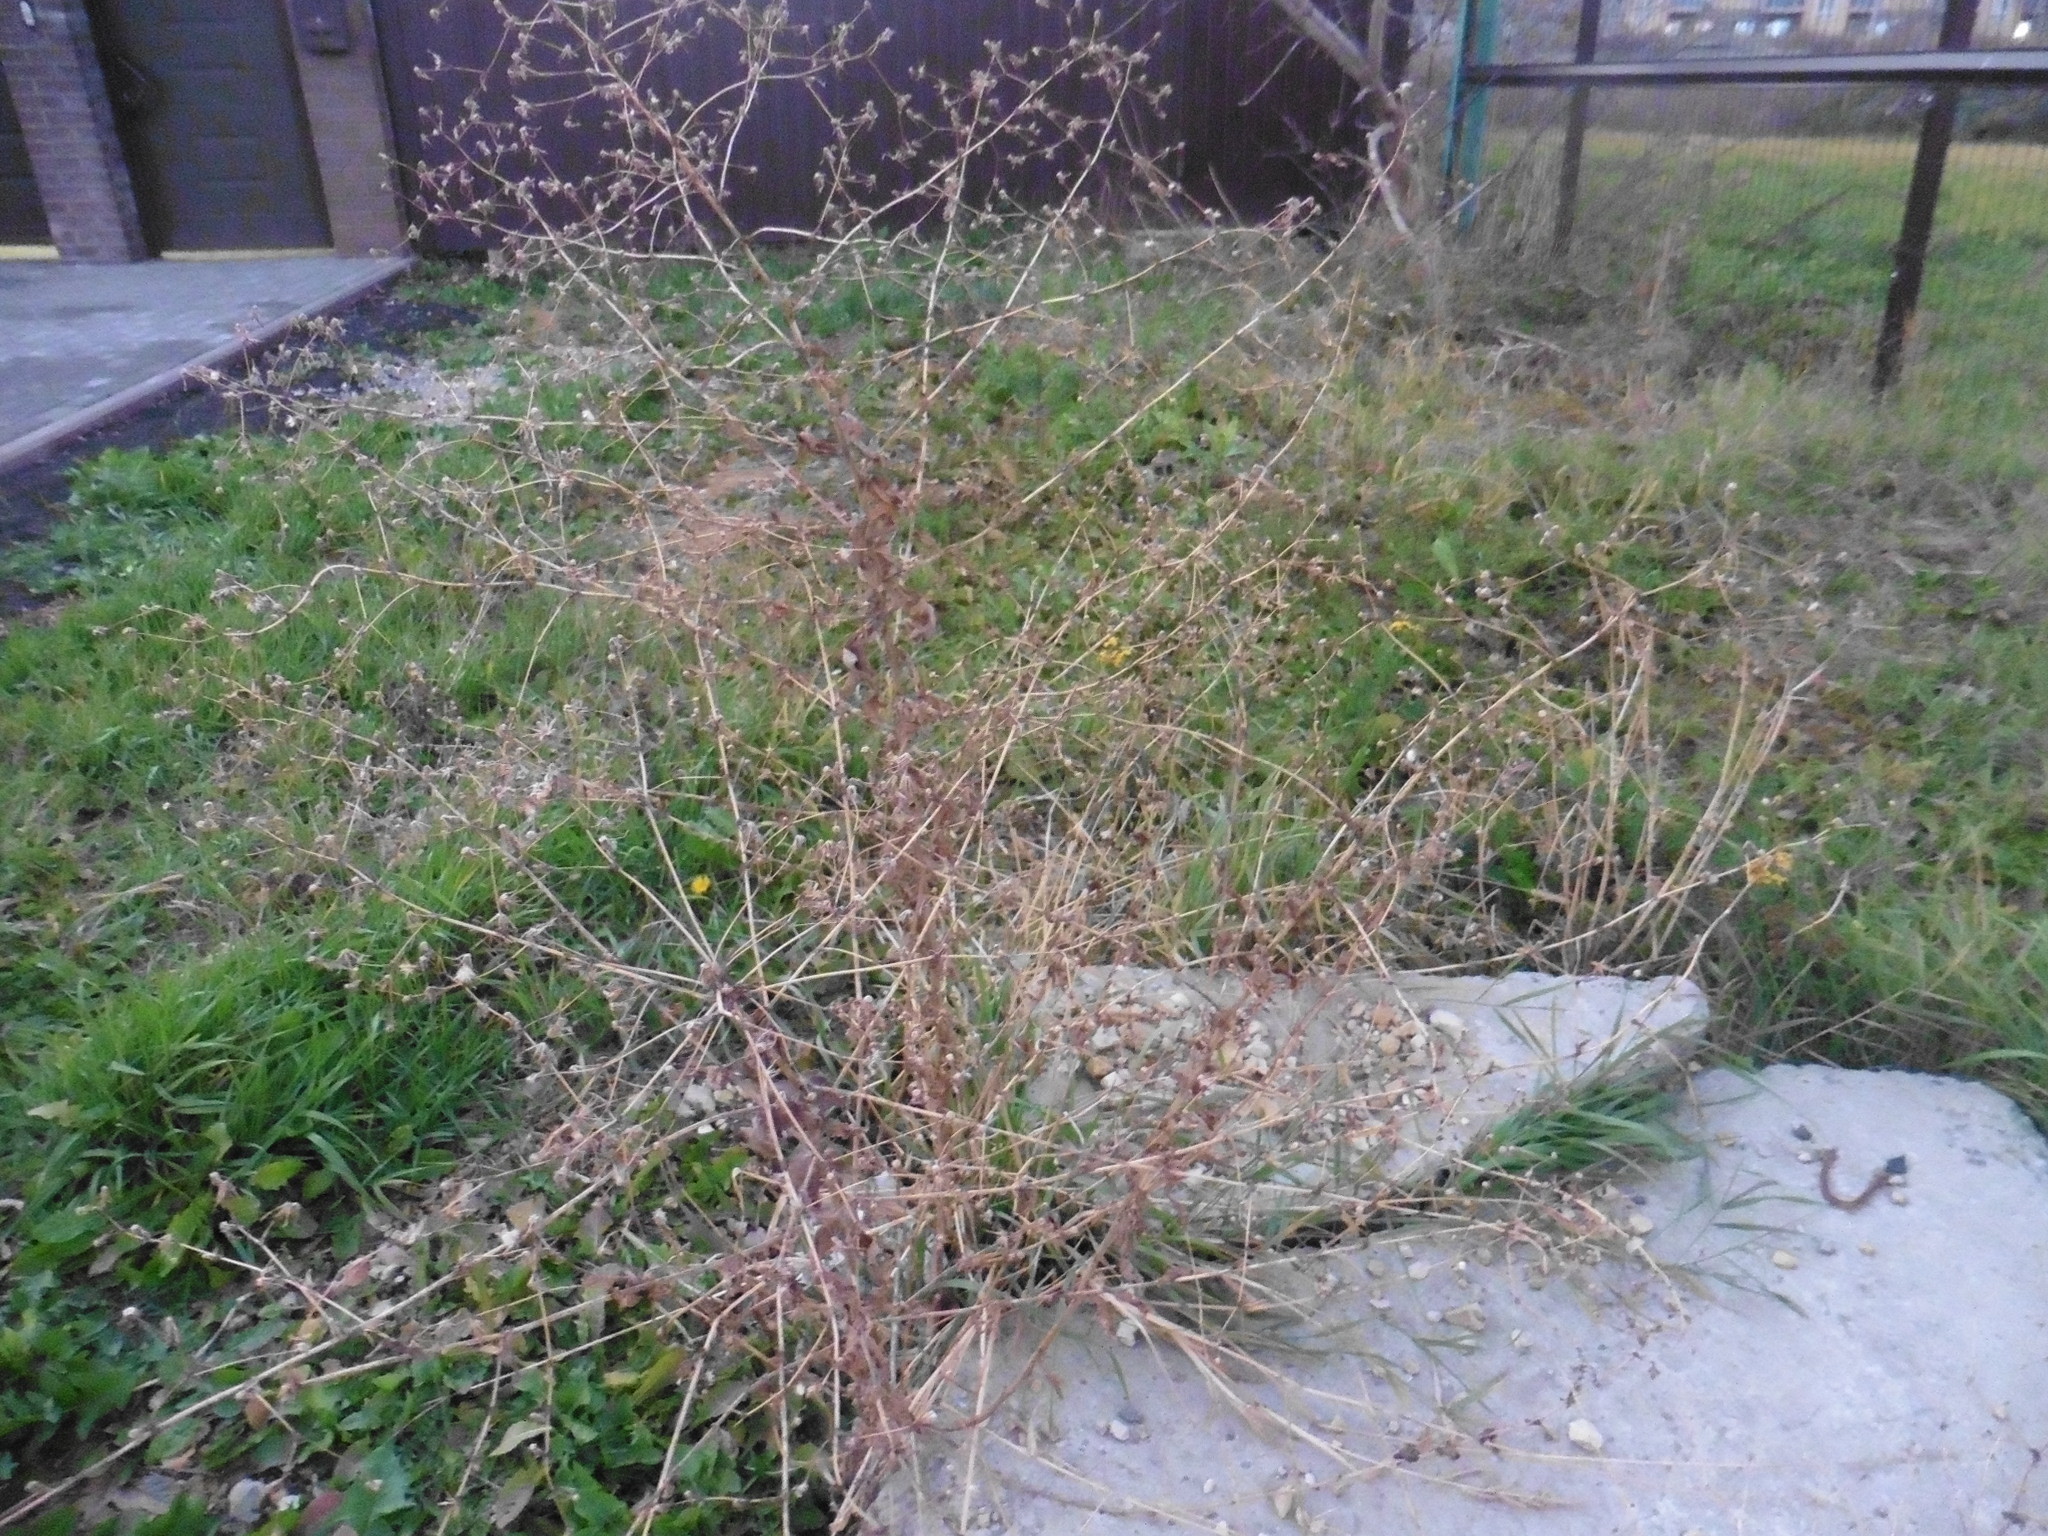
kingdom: Plantae
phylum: Tracheophyta
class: Magnoliopsida
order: Asterales
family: Asteraceae
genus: Lactuca
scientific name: Lactuca serriola
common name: Prickly lettuce
